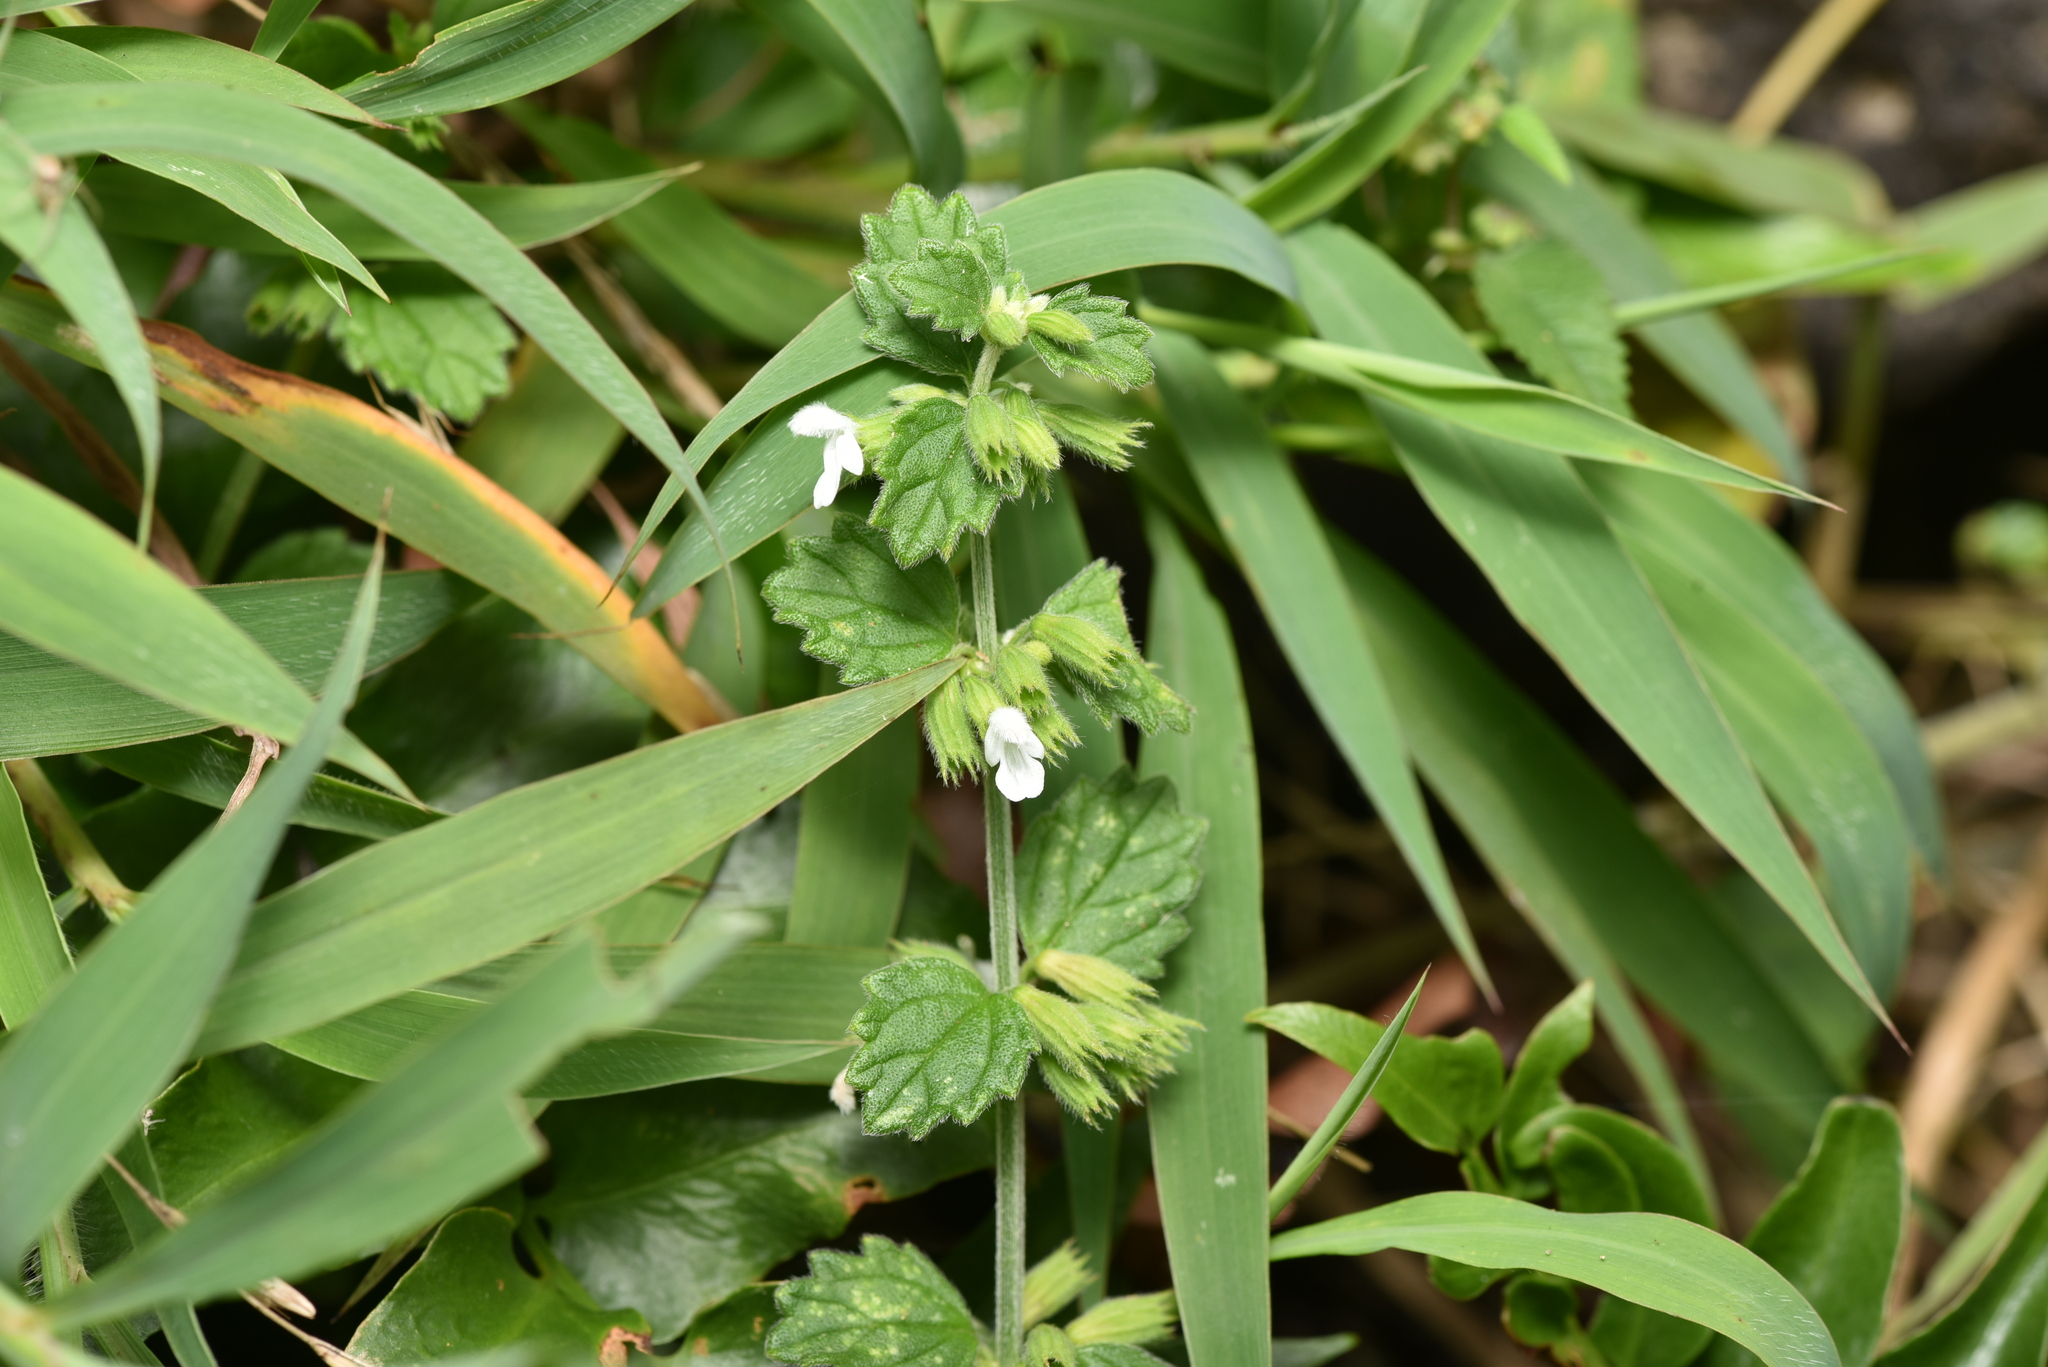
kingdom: Plantae
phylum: Tracheophyta
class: Magnoliopsida
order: Lamiales
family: Lamiaceae
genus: Leucas
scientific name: Leucas chinensis
